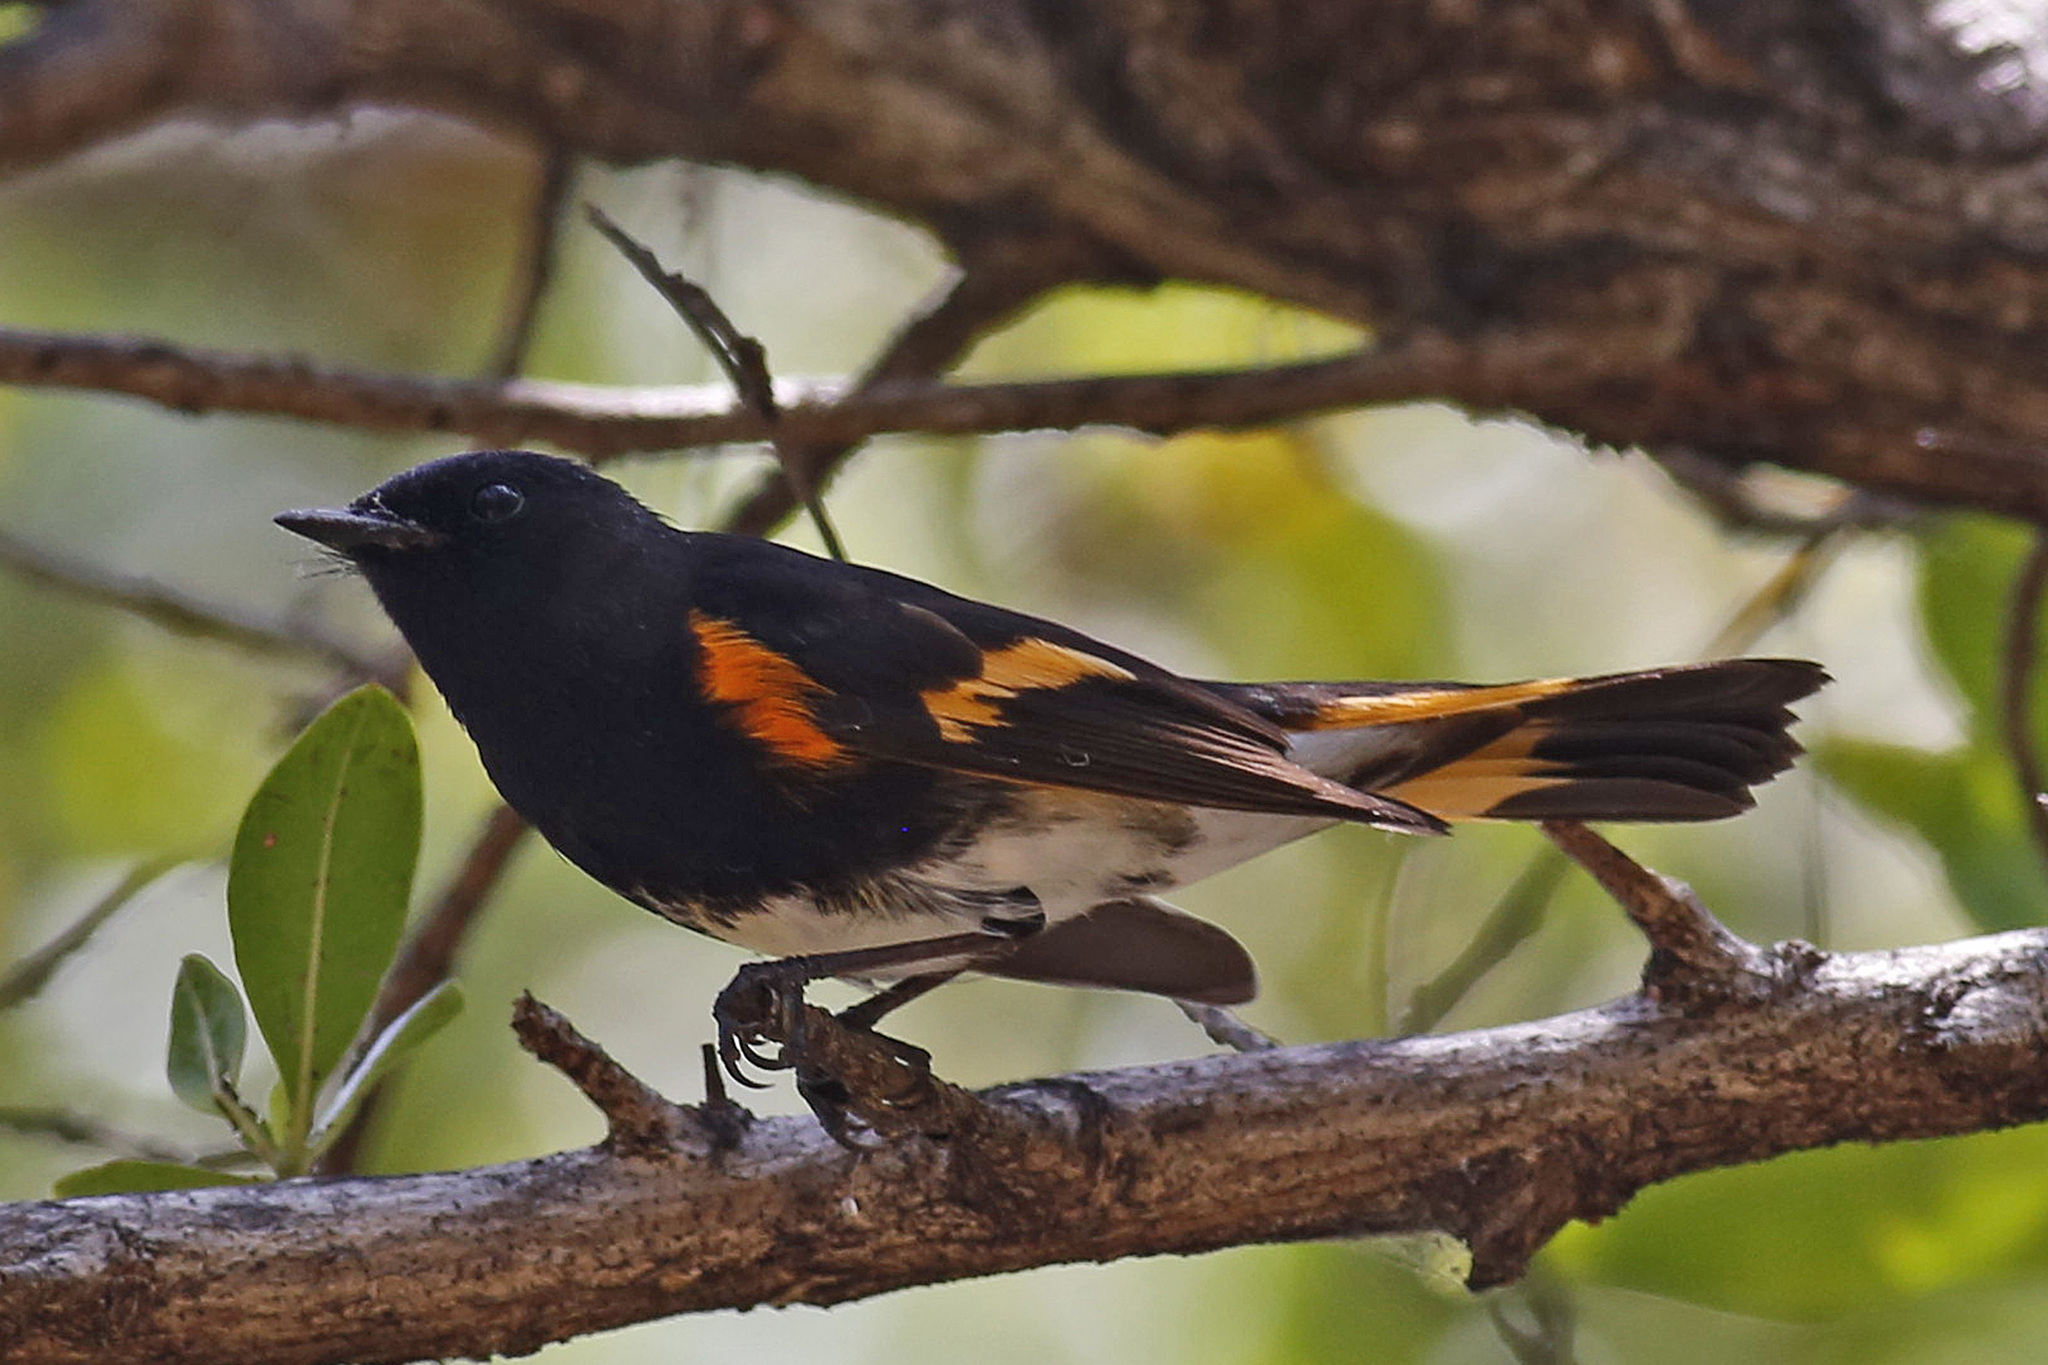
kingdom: Animalia
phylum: Chordata
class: Aves
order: Passeriformes
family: Parulidae
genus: Setophaga
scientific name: Setophaga ruticilla
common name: American redstart
